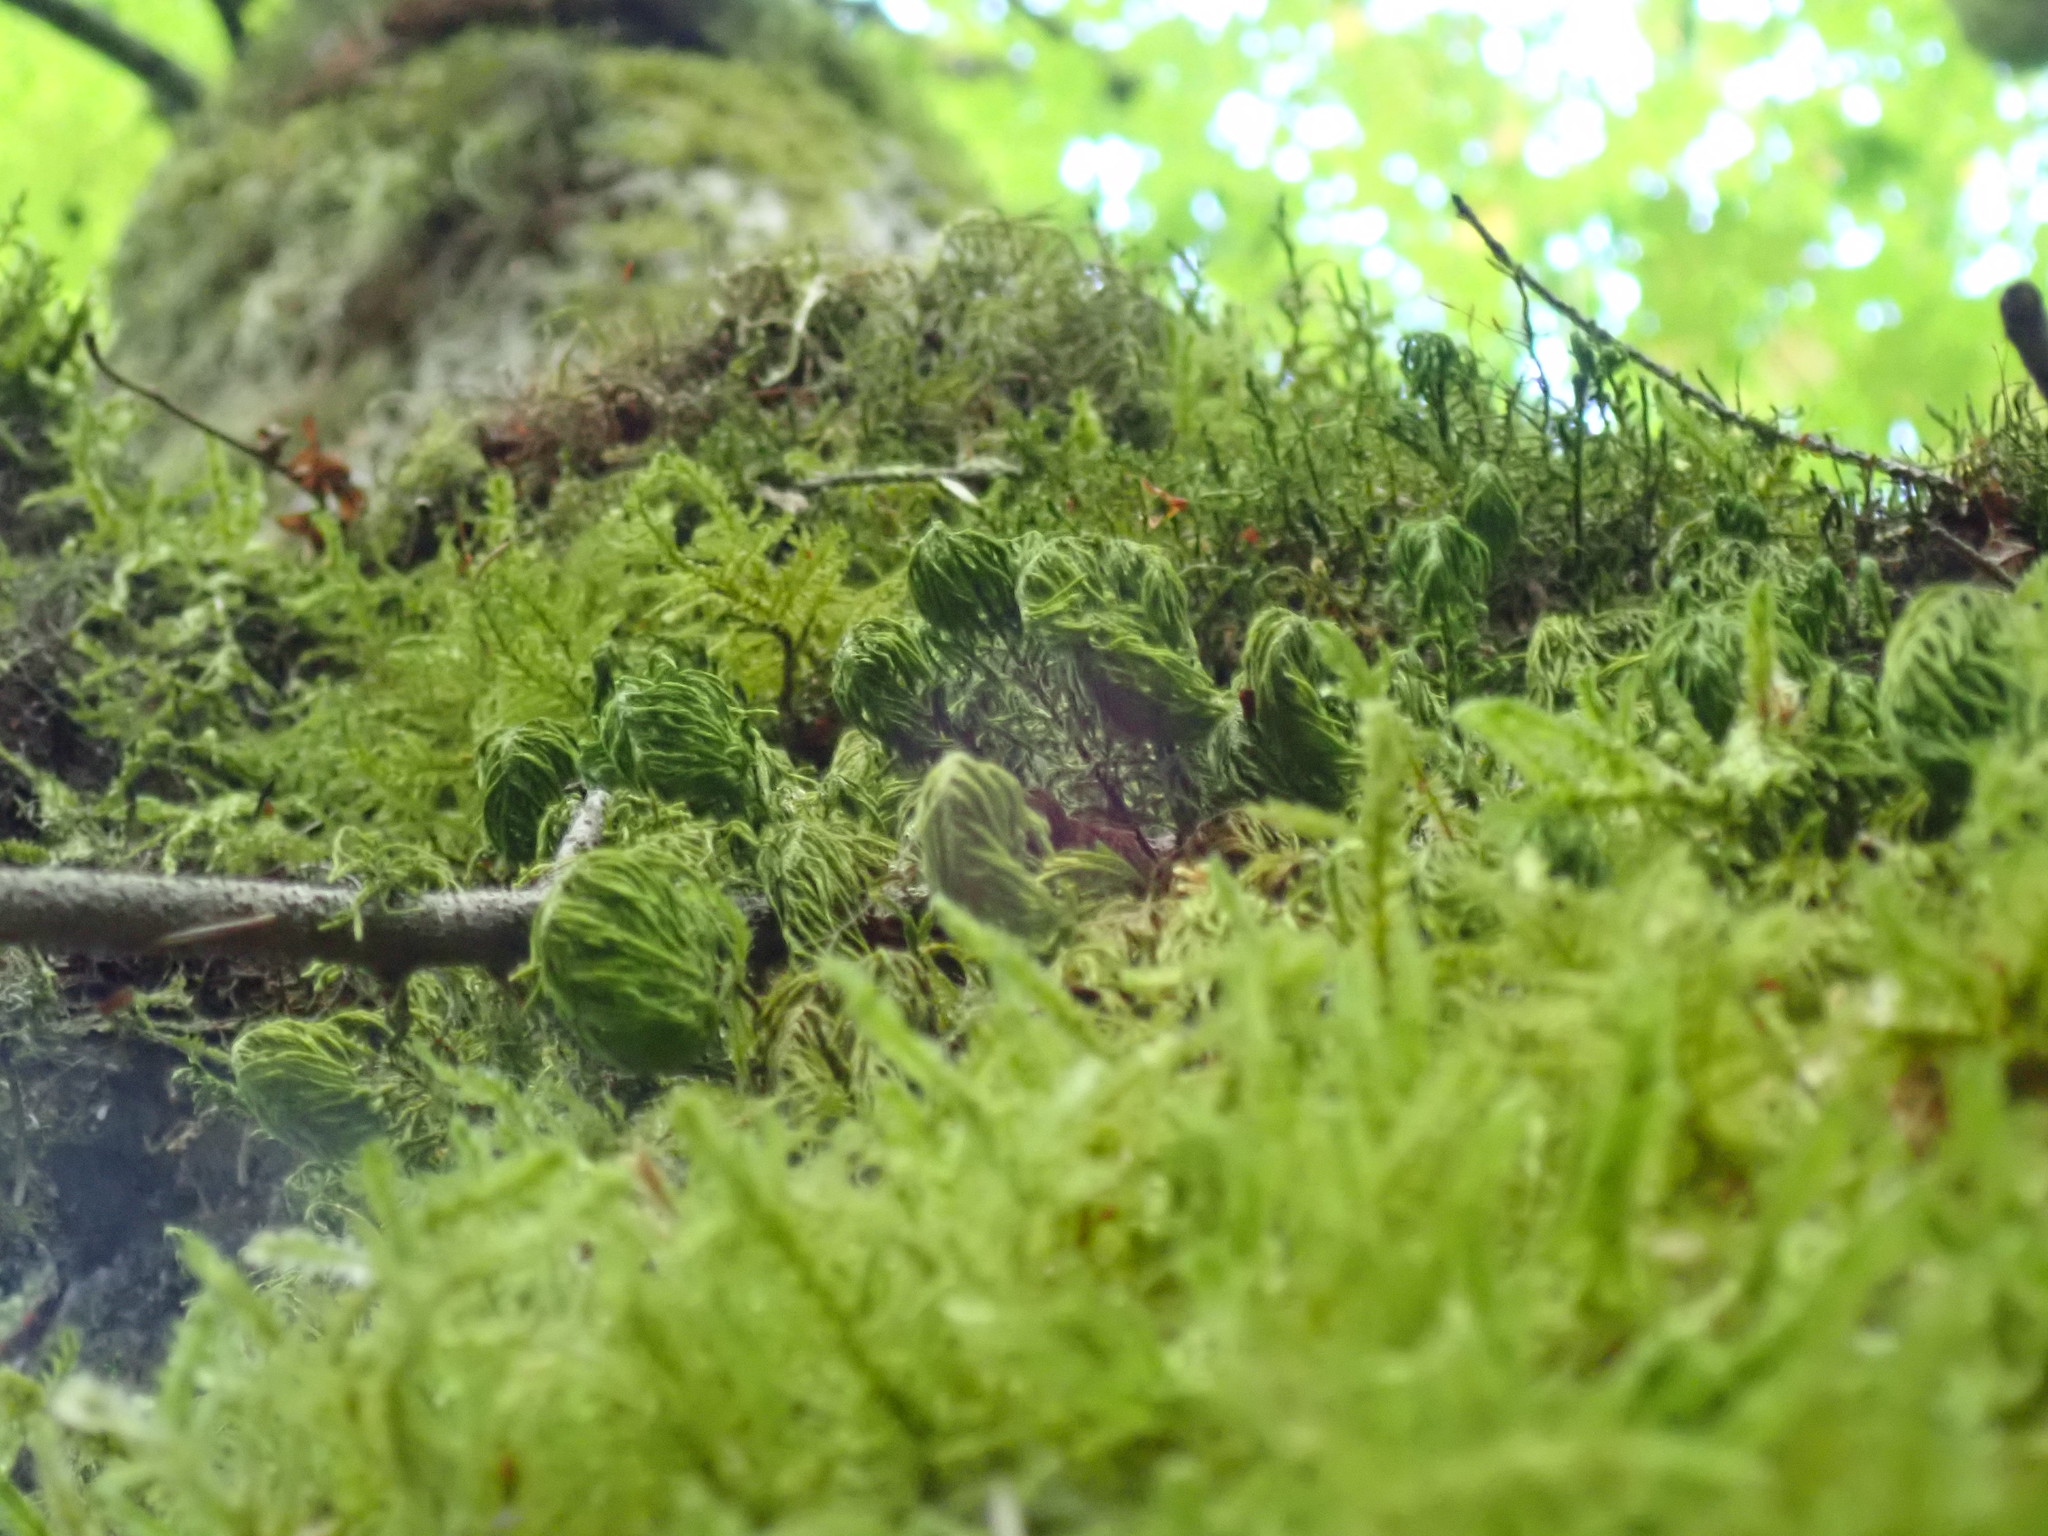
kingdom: Plantae
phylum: Bryophyta
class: Bryopsida
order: Hypnales
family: Cryphaeaceae
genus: Dendroalsia
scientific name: Dendroalsia abietina
